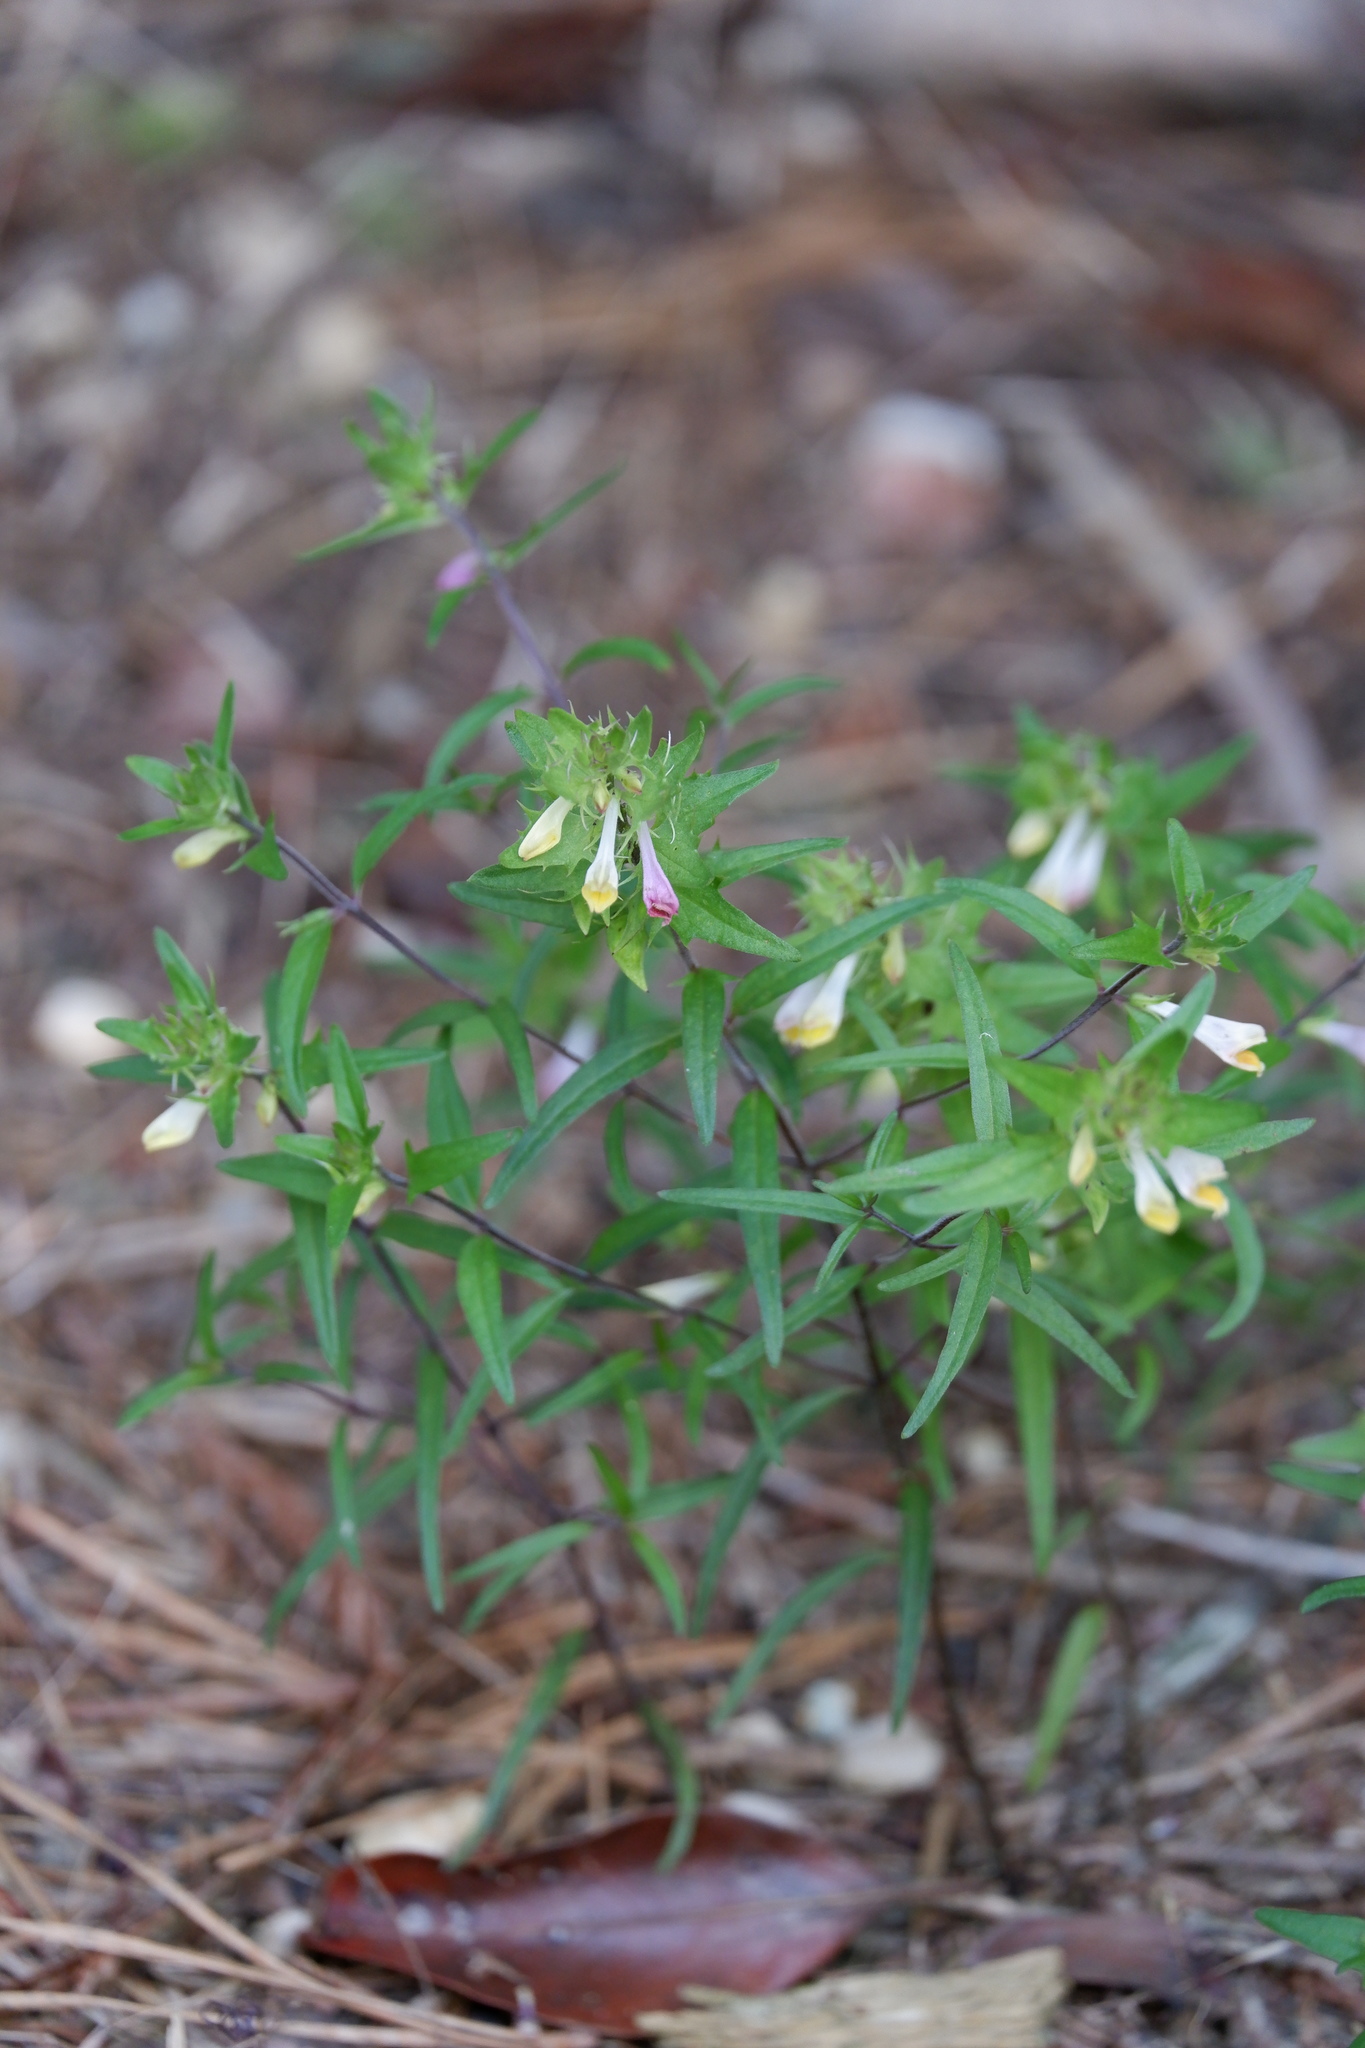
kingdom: Plantae
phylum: Tracheophyta
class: Magnoliopsida
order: Lamiales
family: Orobanchaceae
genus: Melampyrum
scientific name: Melampyrum lineare
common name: American cow-wheat
